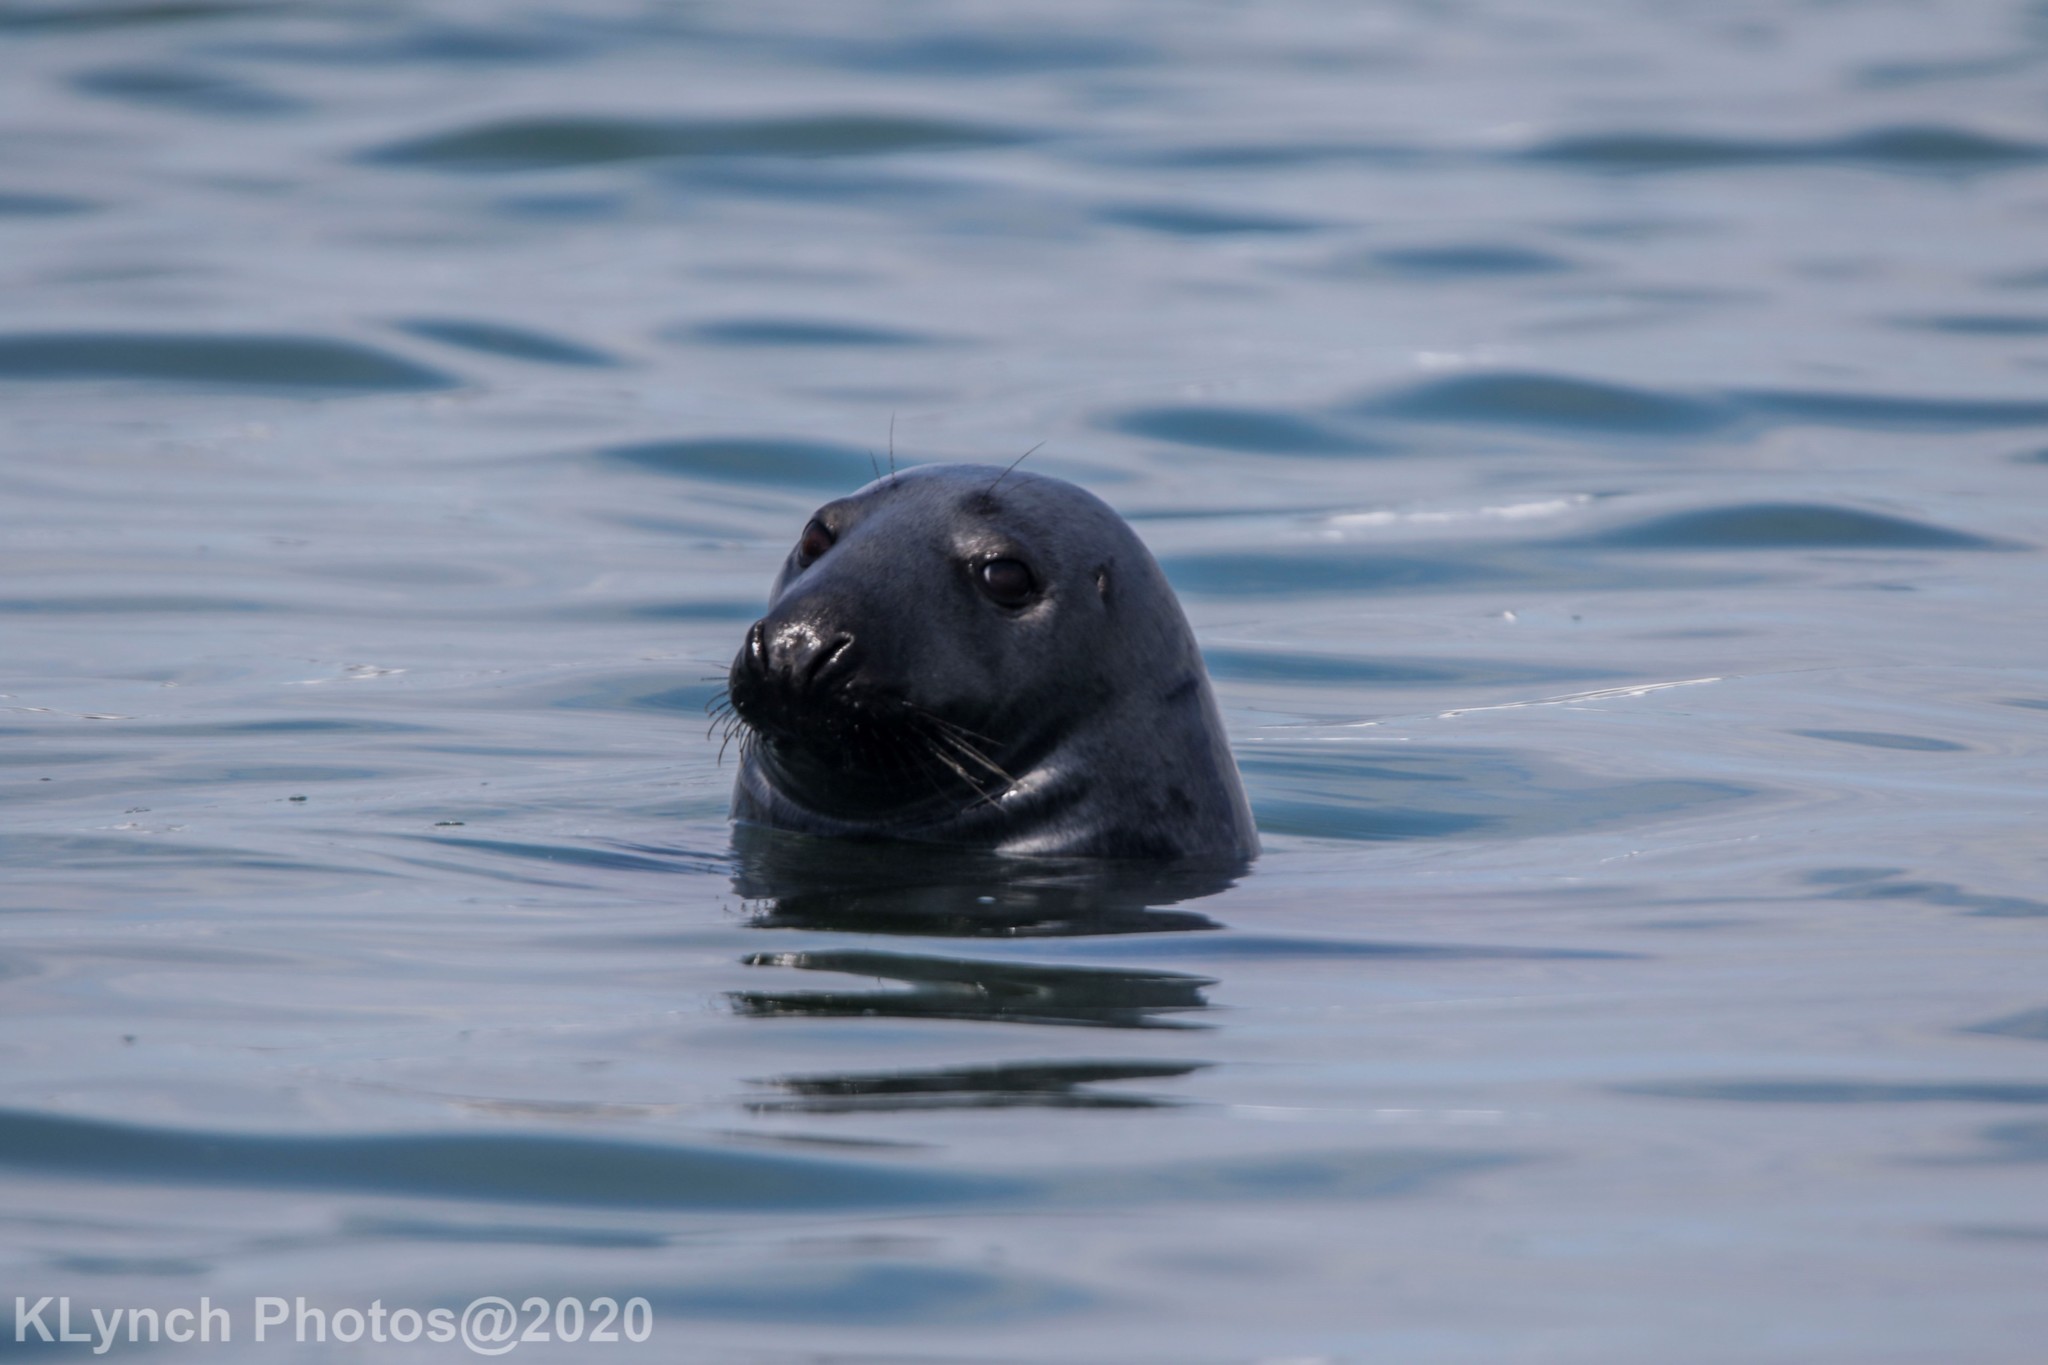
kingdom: Animalia
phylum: Chordata
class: Mammalia
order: Carnivora
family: Phocidae
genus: Halichoerus
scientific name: Halichoerus grypus
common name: Grey seal
